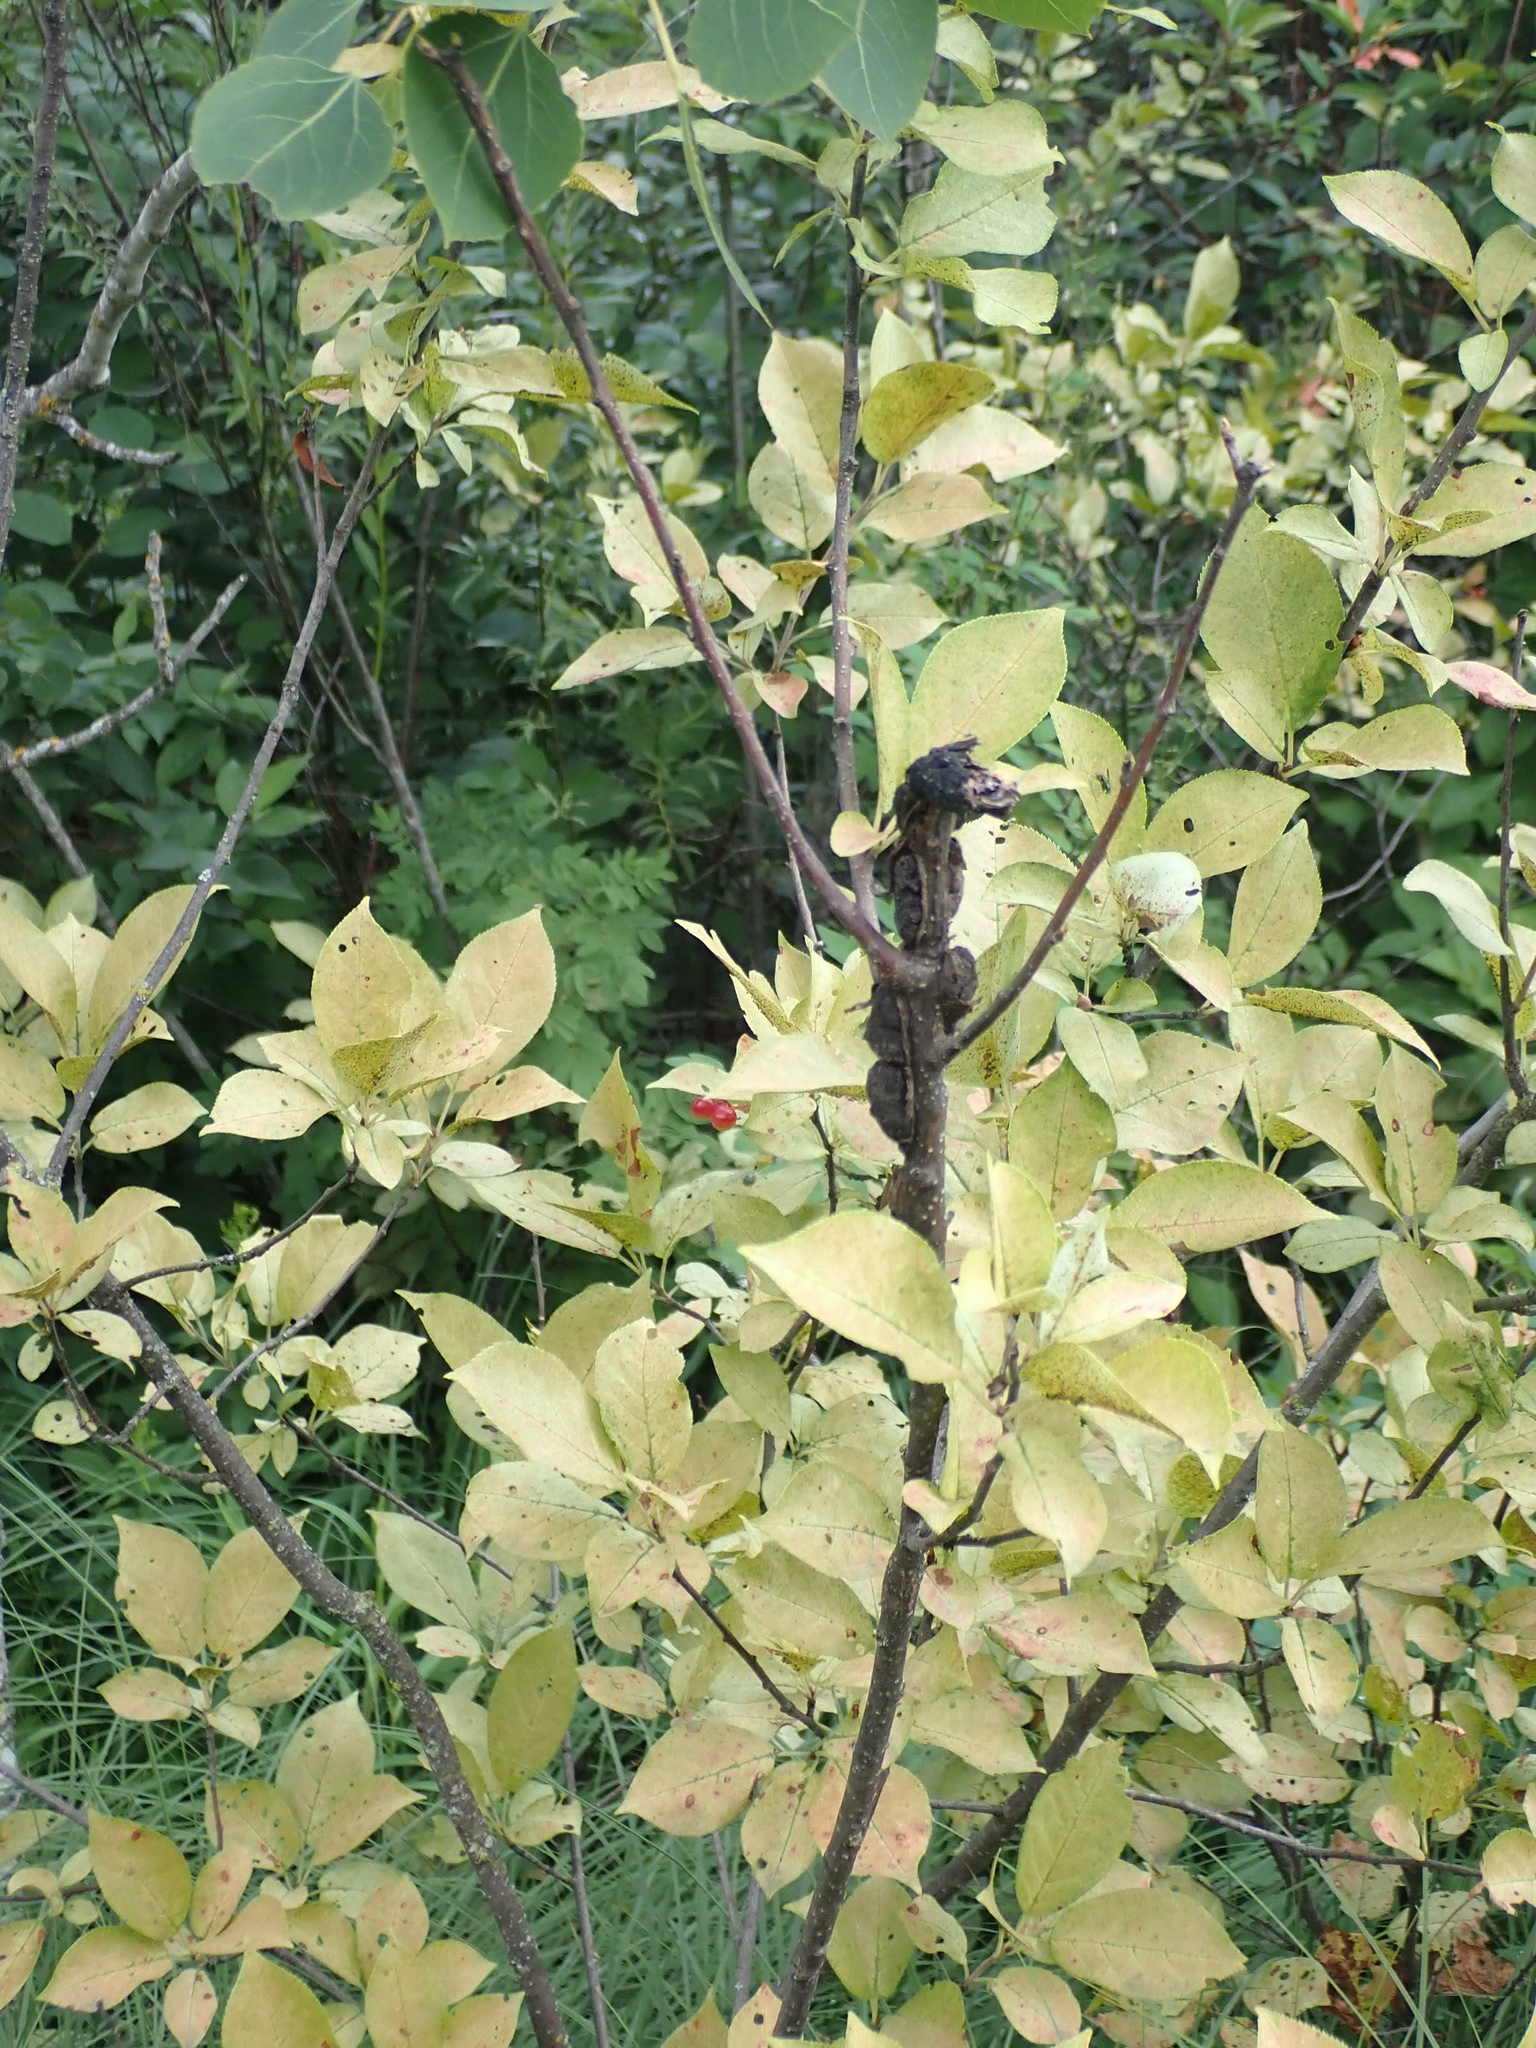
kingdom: Fungi
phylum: Ascomycota
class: Dothideomycetes
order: Venturiales
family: Venturiaceae
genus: Apiosporina
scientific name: Apiosporina morbosa
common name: Black knot
